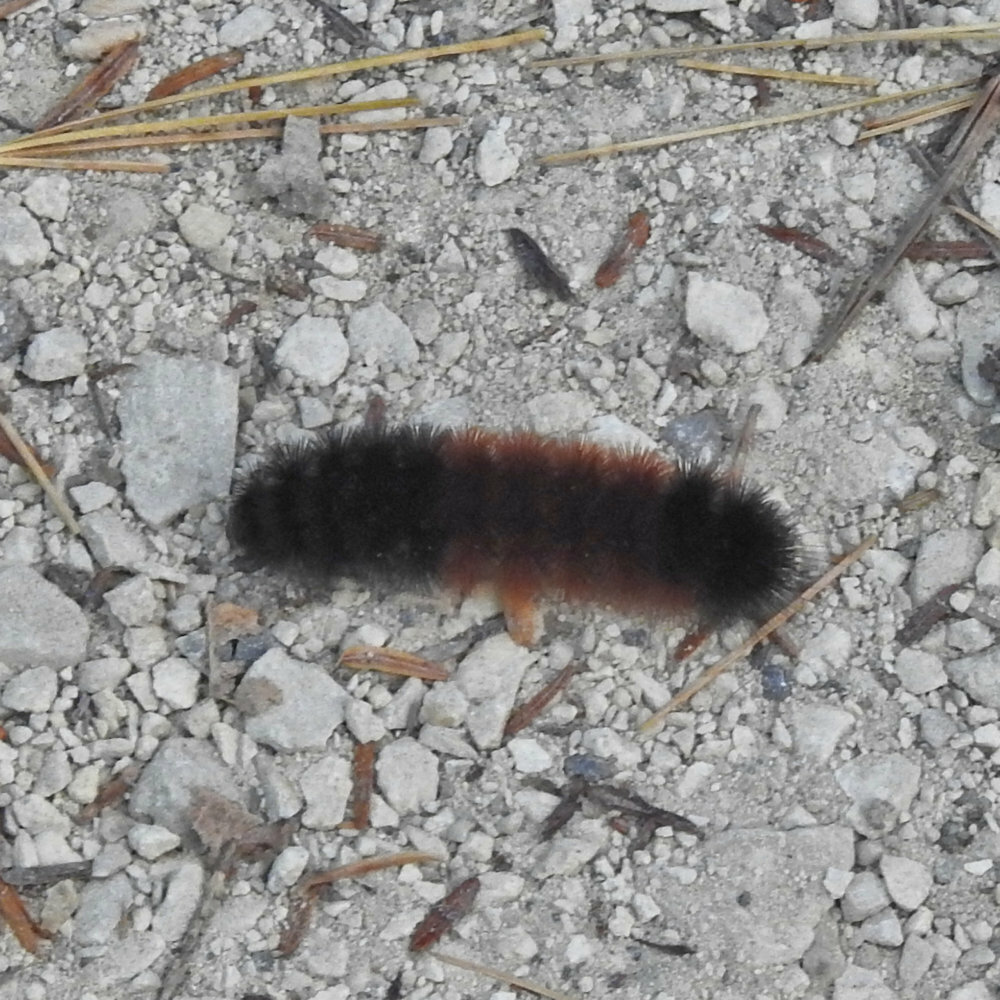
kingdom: Animalia
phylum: Arthropoda
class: Insecta
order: Lepidoptera
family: Erebidae
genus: Pyrrharctia
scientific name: Pyrrharctia isabella
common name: Isabella tiger moth
